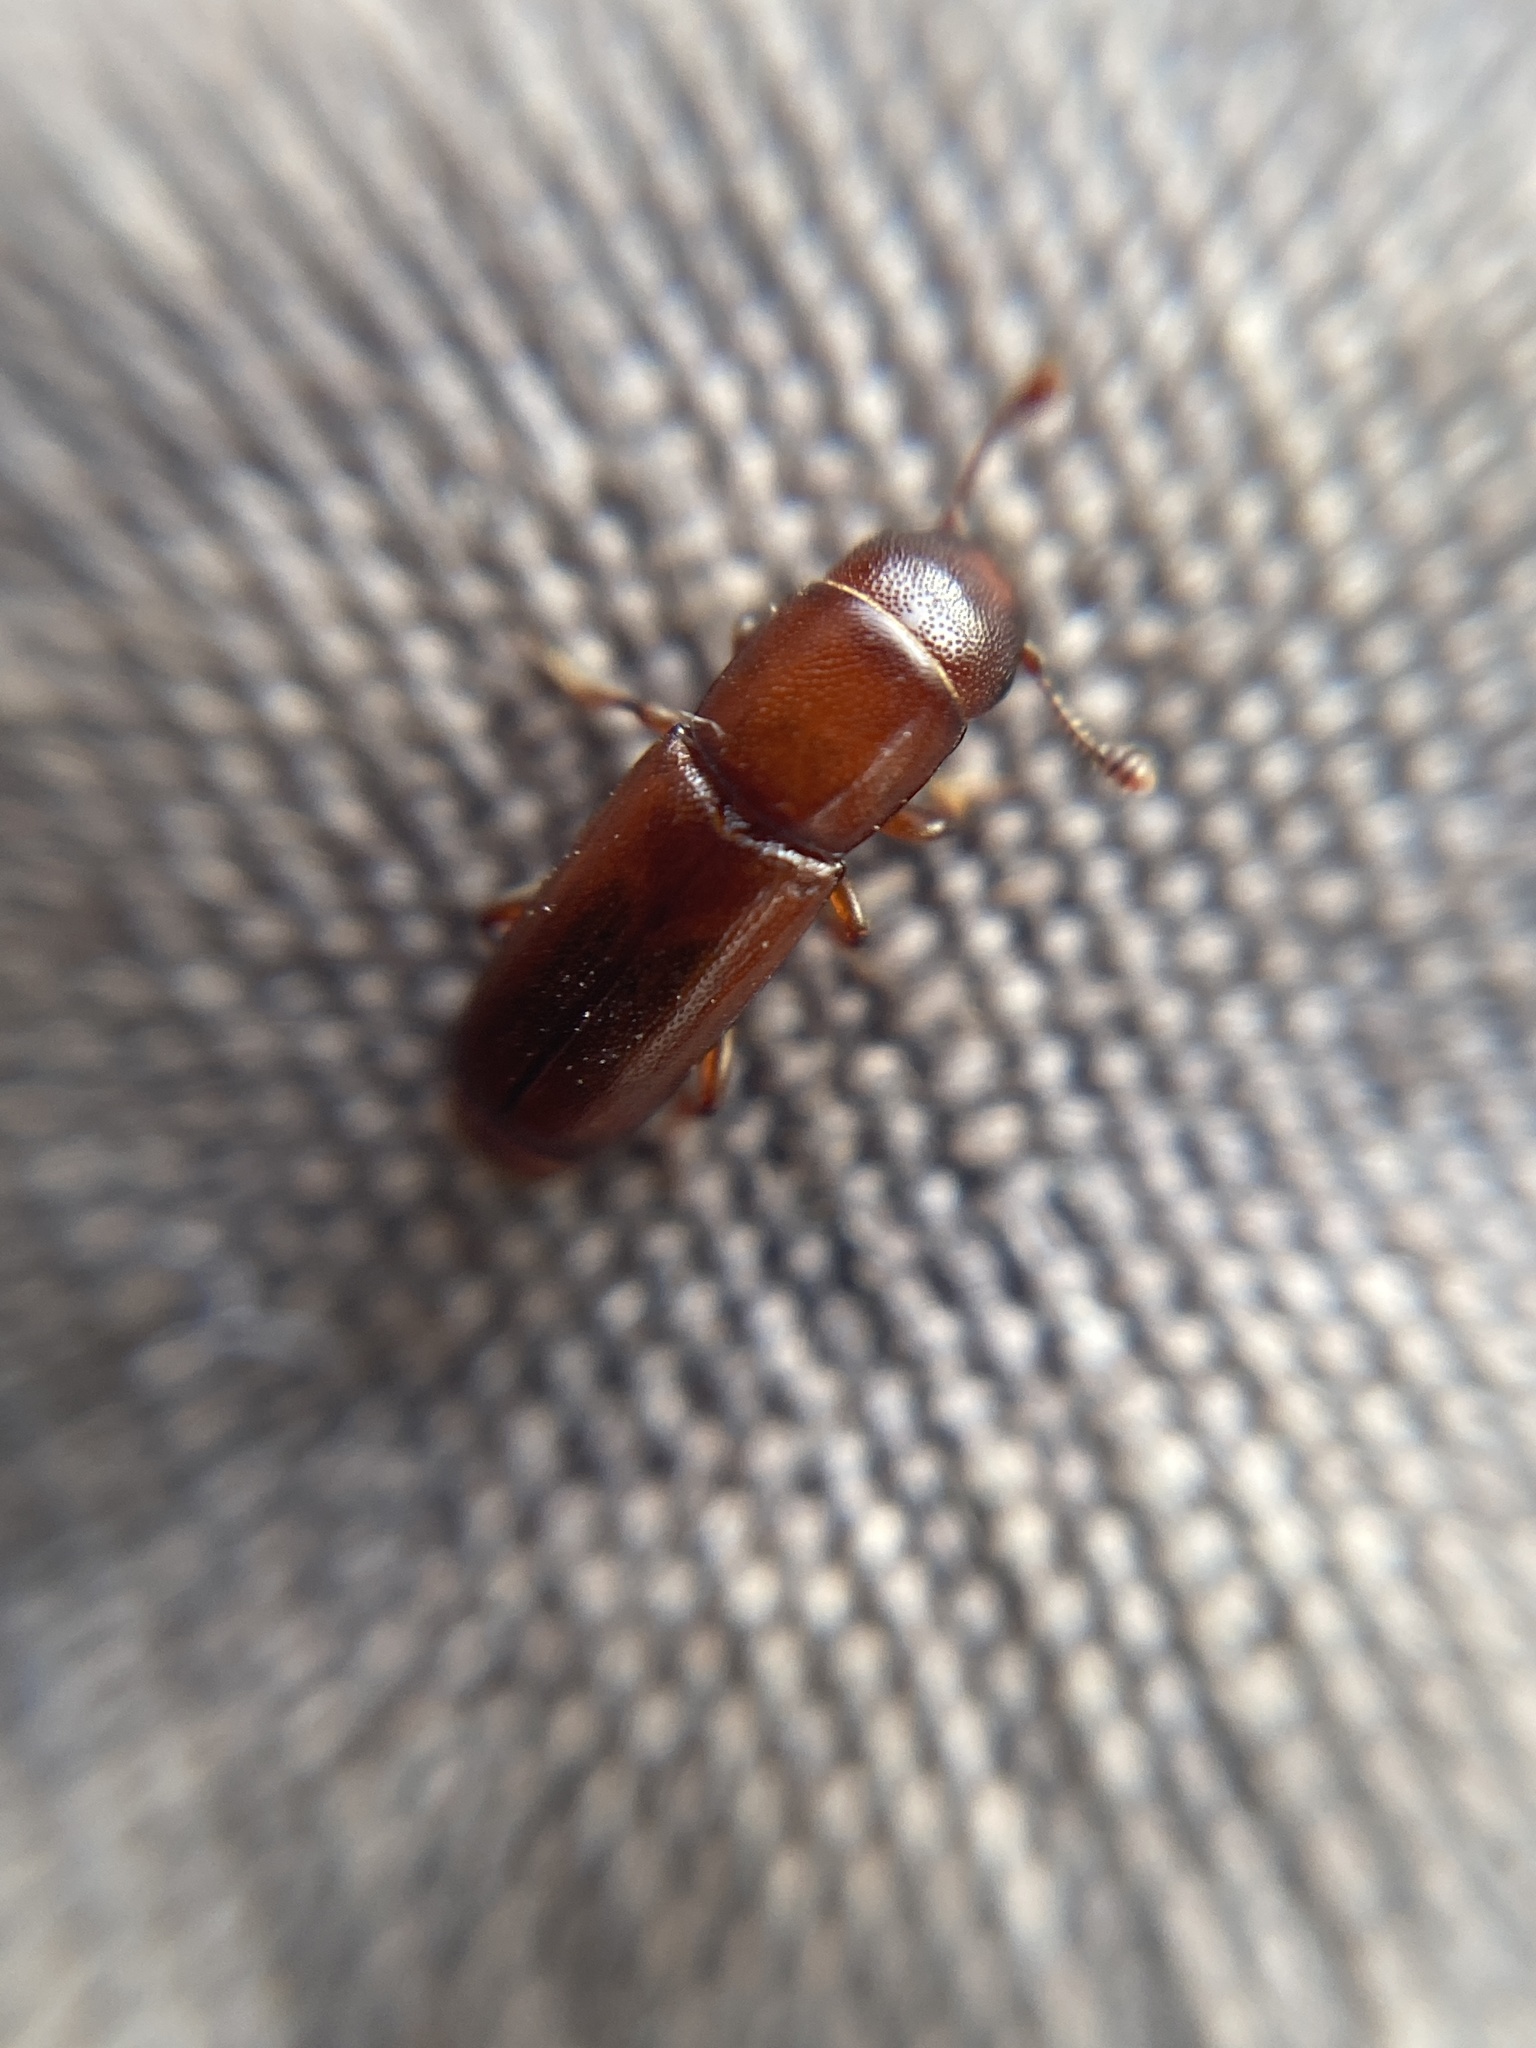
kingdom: Animalia
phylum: Arthropoda
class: Insecta
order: Coleoptera
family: Nitidulidae
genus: Pityophagus
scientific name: Pityophagus ferrugineus
